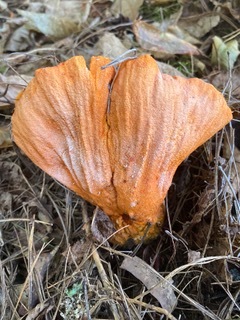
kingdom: Fungi
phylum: Ascomycota
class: Sordariomycetes
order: Hypocreales
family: Hypocreaceae
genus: Hypomyces
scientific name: Hypomyces lactifluorum
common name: Lobster mushroom
